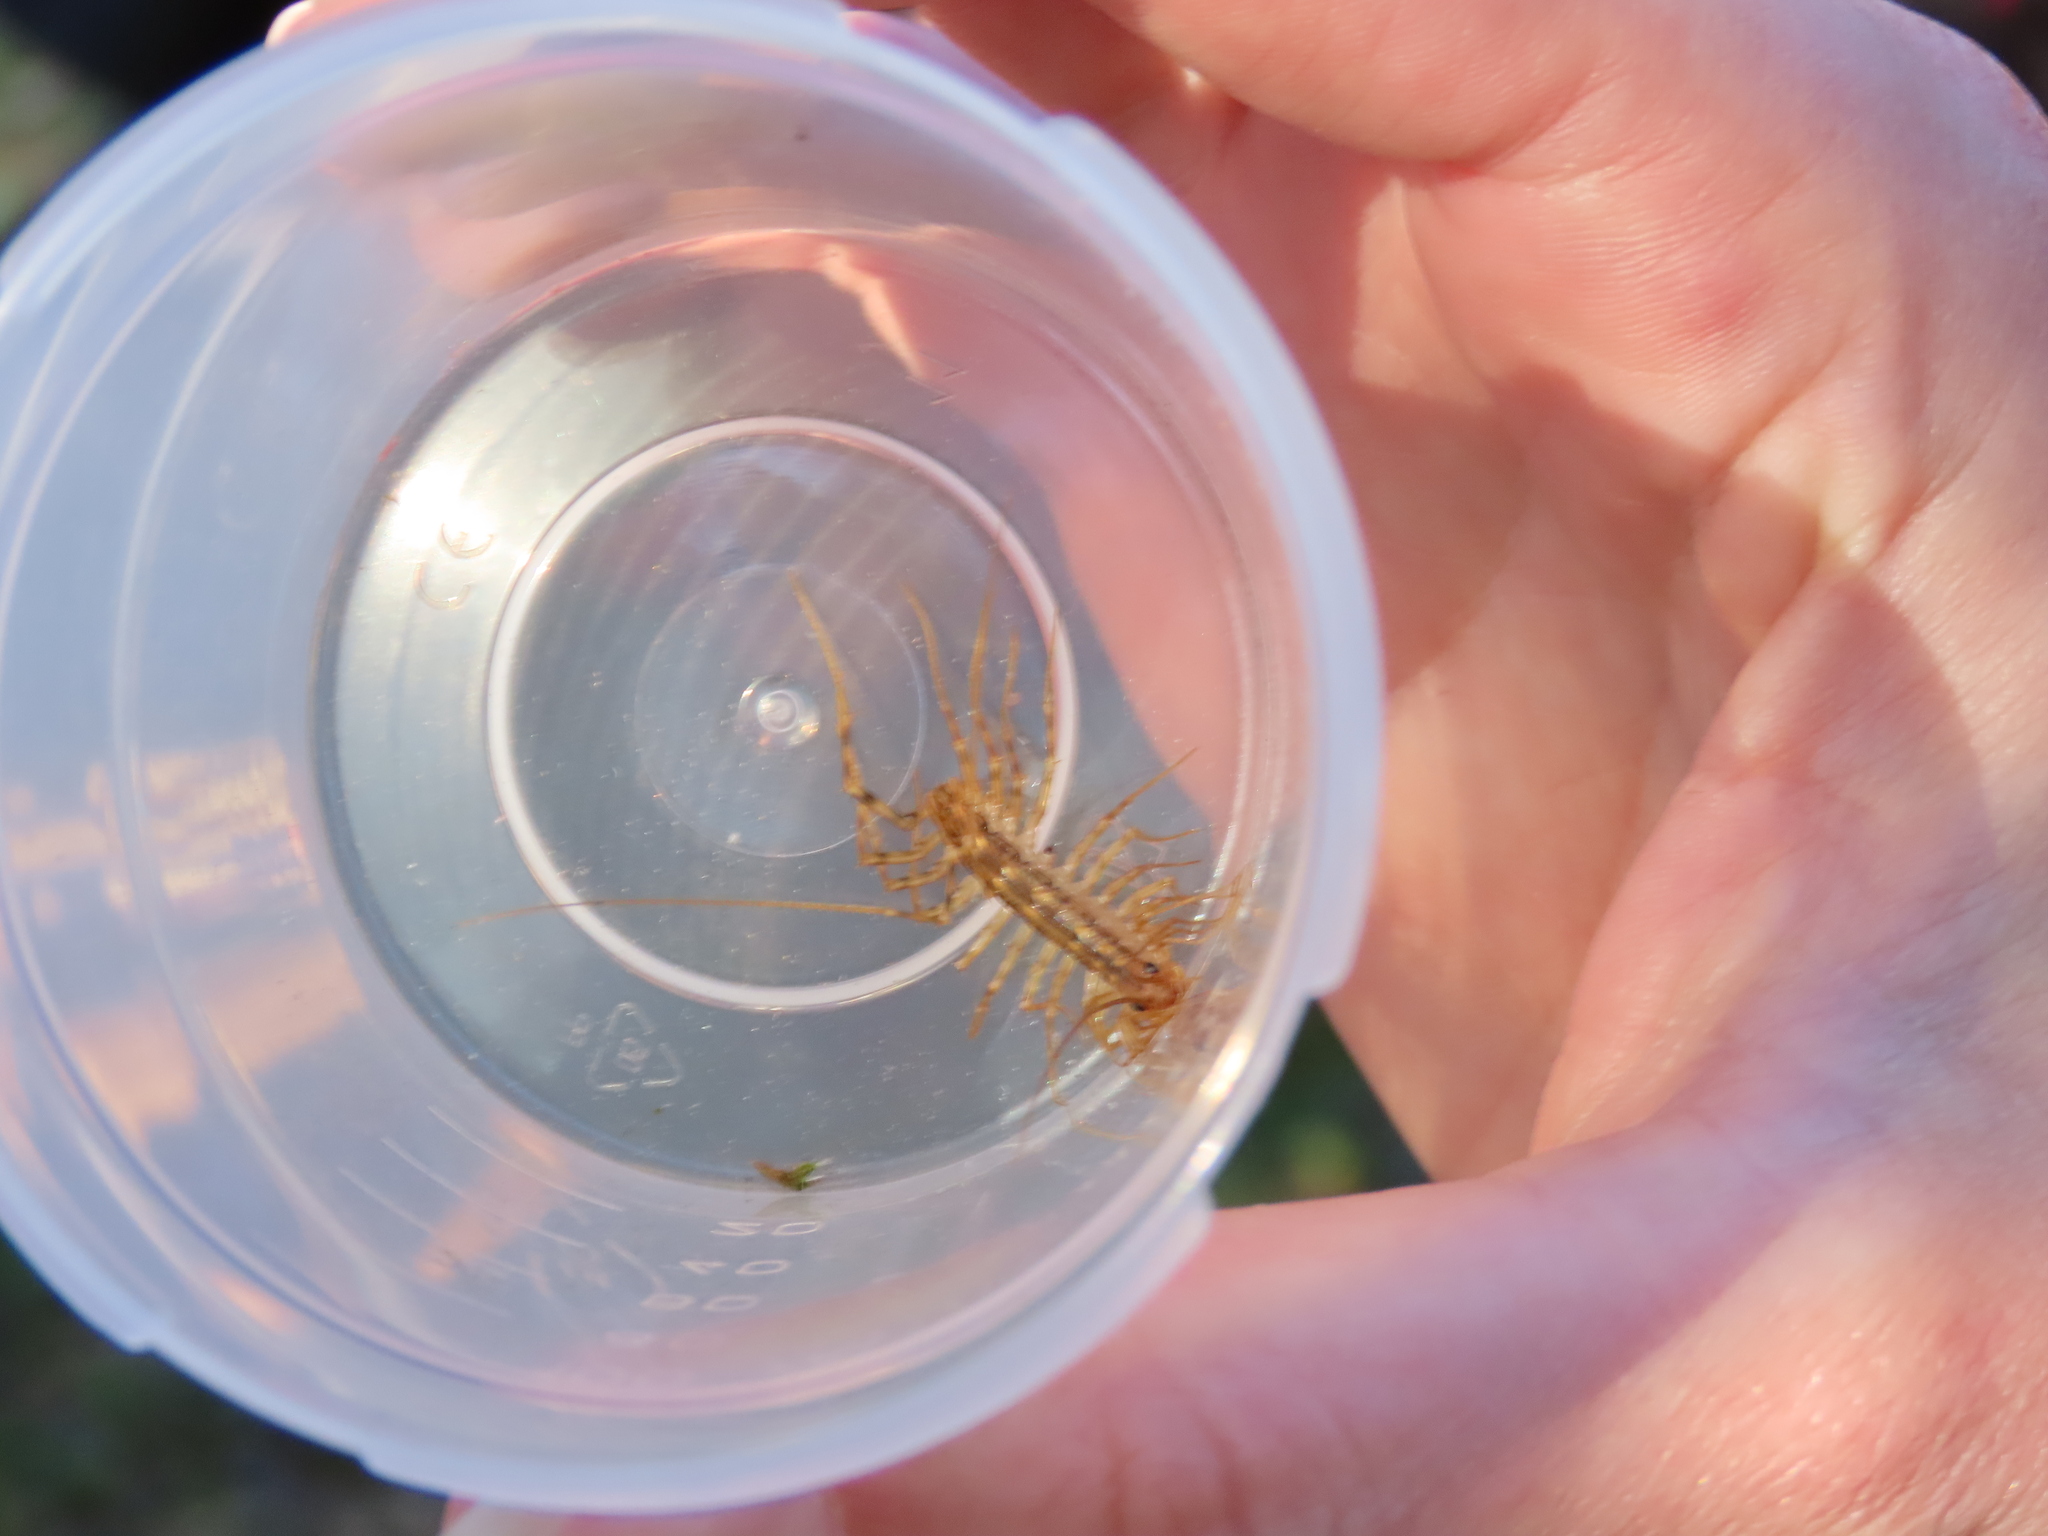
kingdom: Animalia
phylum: Arthropoda
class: Chilopoda
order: Scutigeromorpha
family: Scutigeridae
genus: Scutigera
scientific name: Scutigera coleoptrata
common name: House centipede
